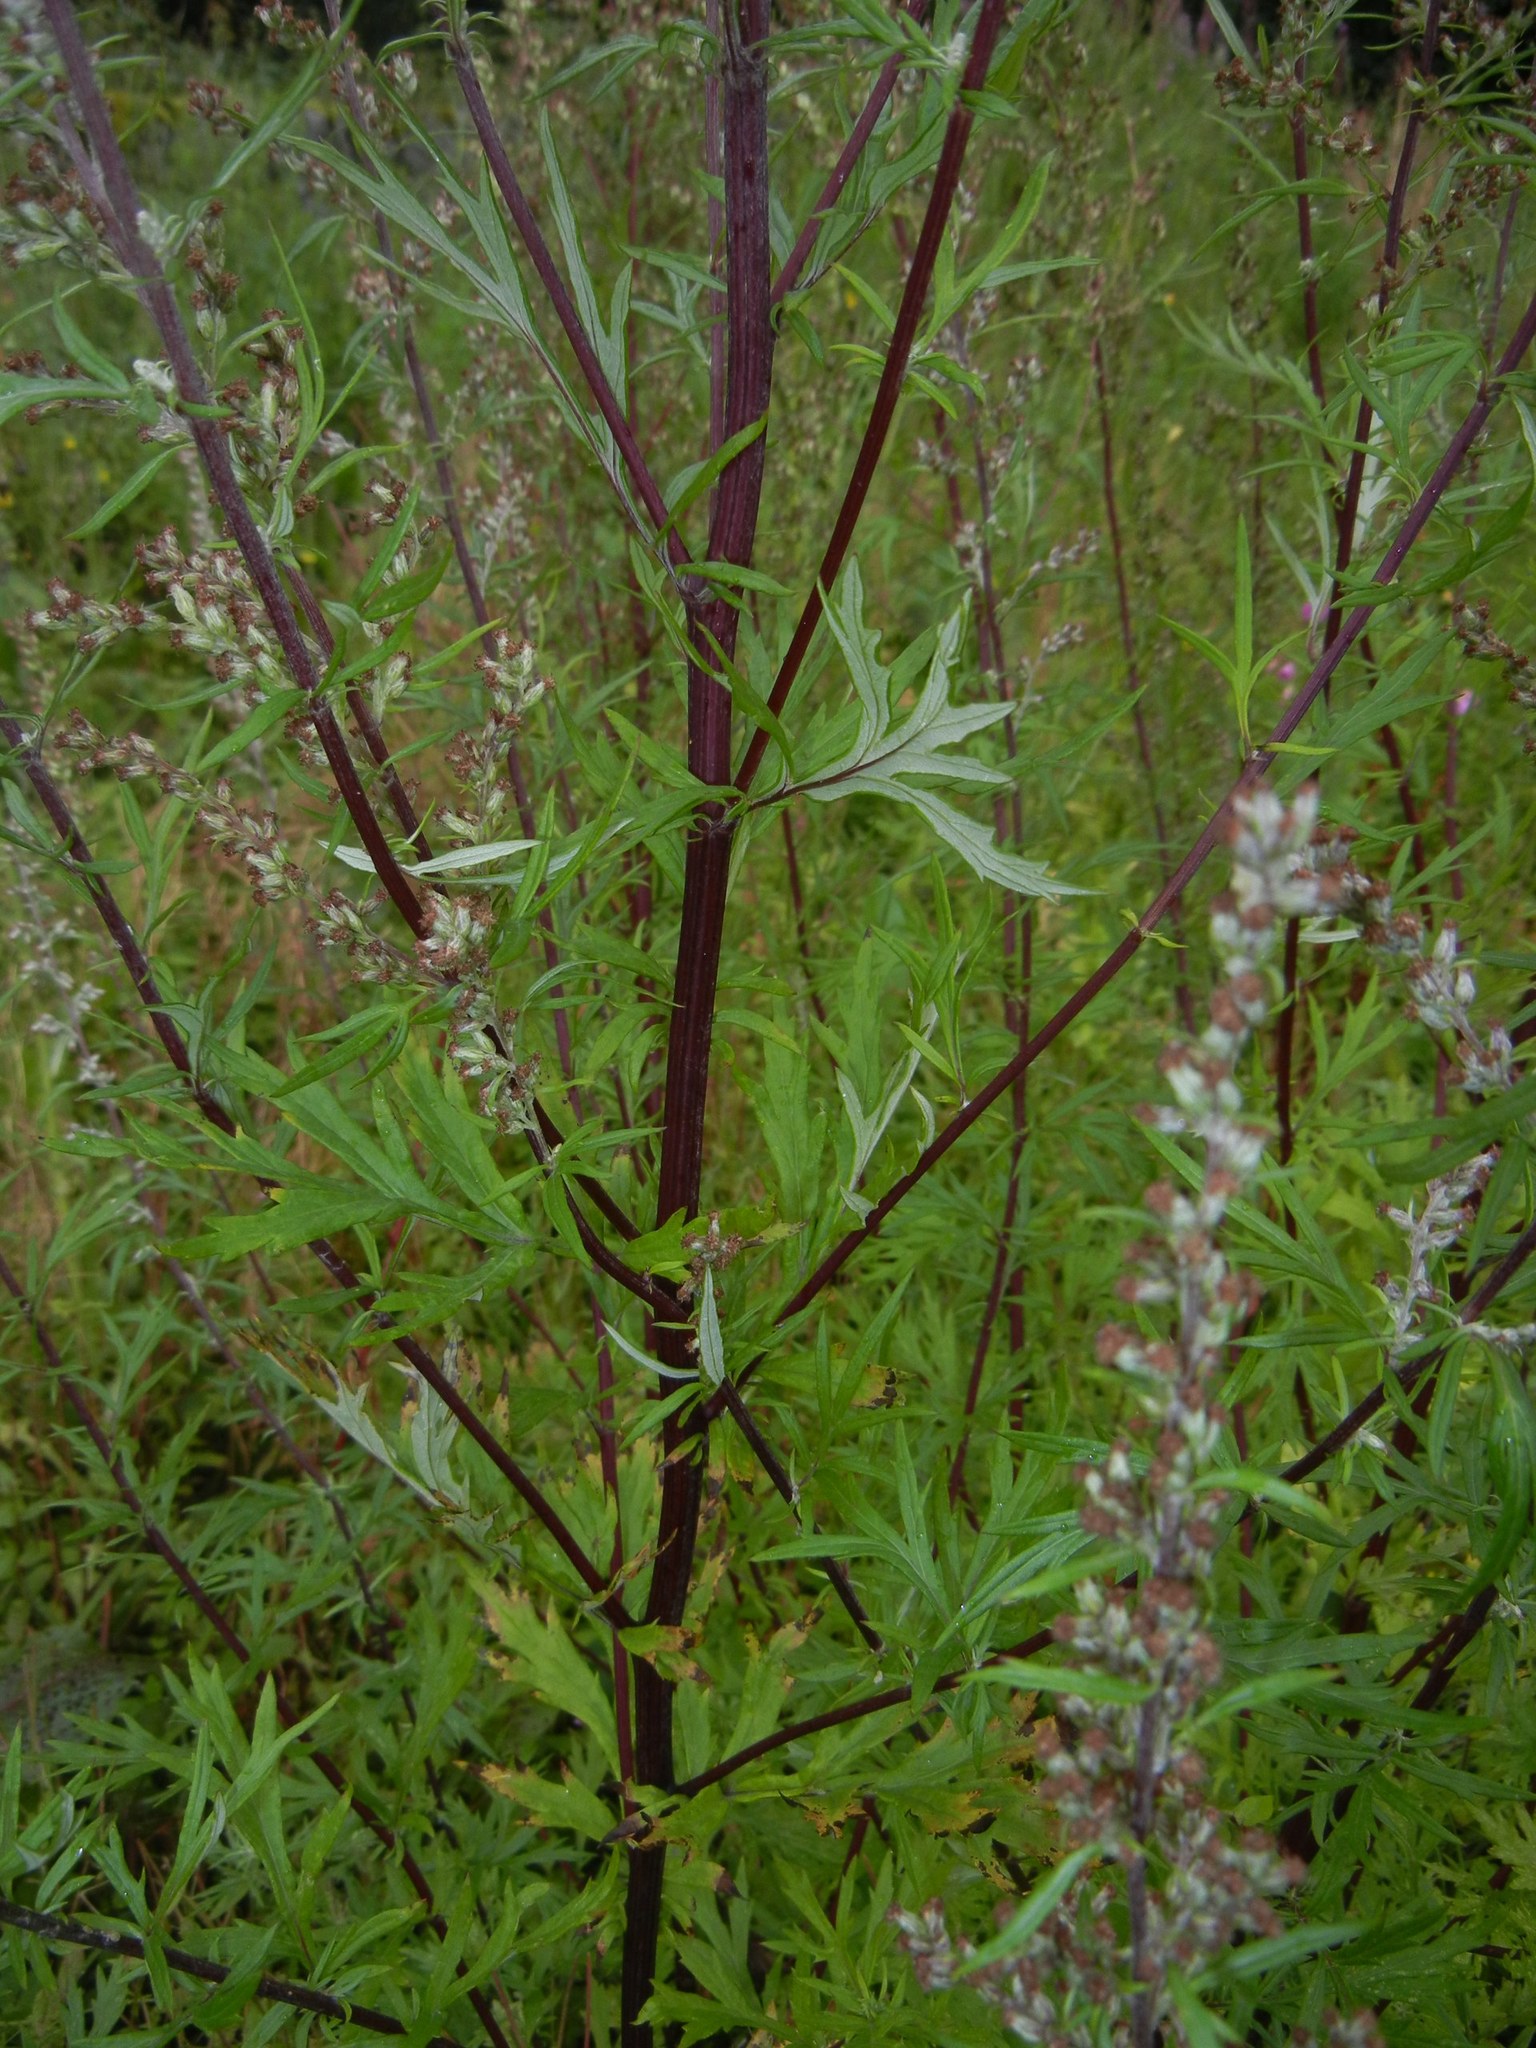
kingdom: Plantae
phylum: Tracheophyta
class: Magnoliopsida
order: Asterales
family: Asteraceae
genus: Artemisia
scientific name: Artemisia vulgaris
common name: Mugwort
